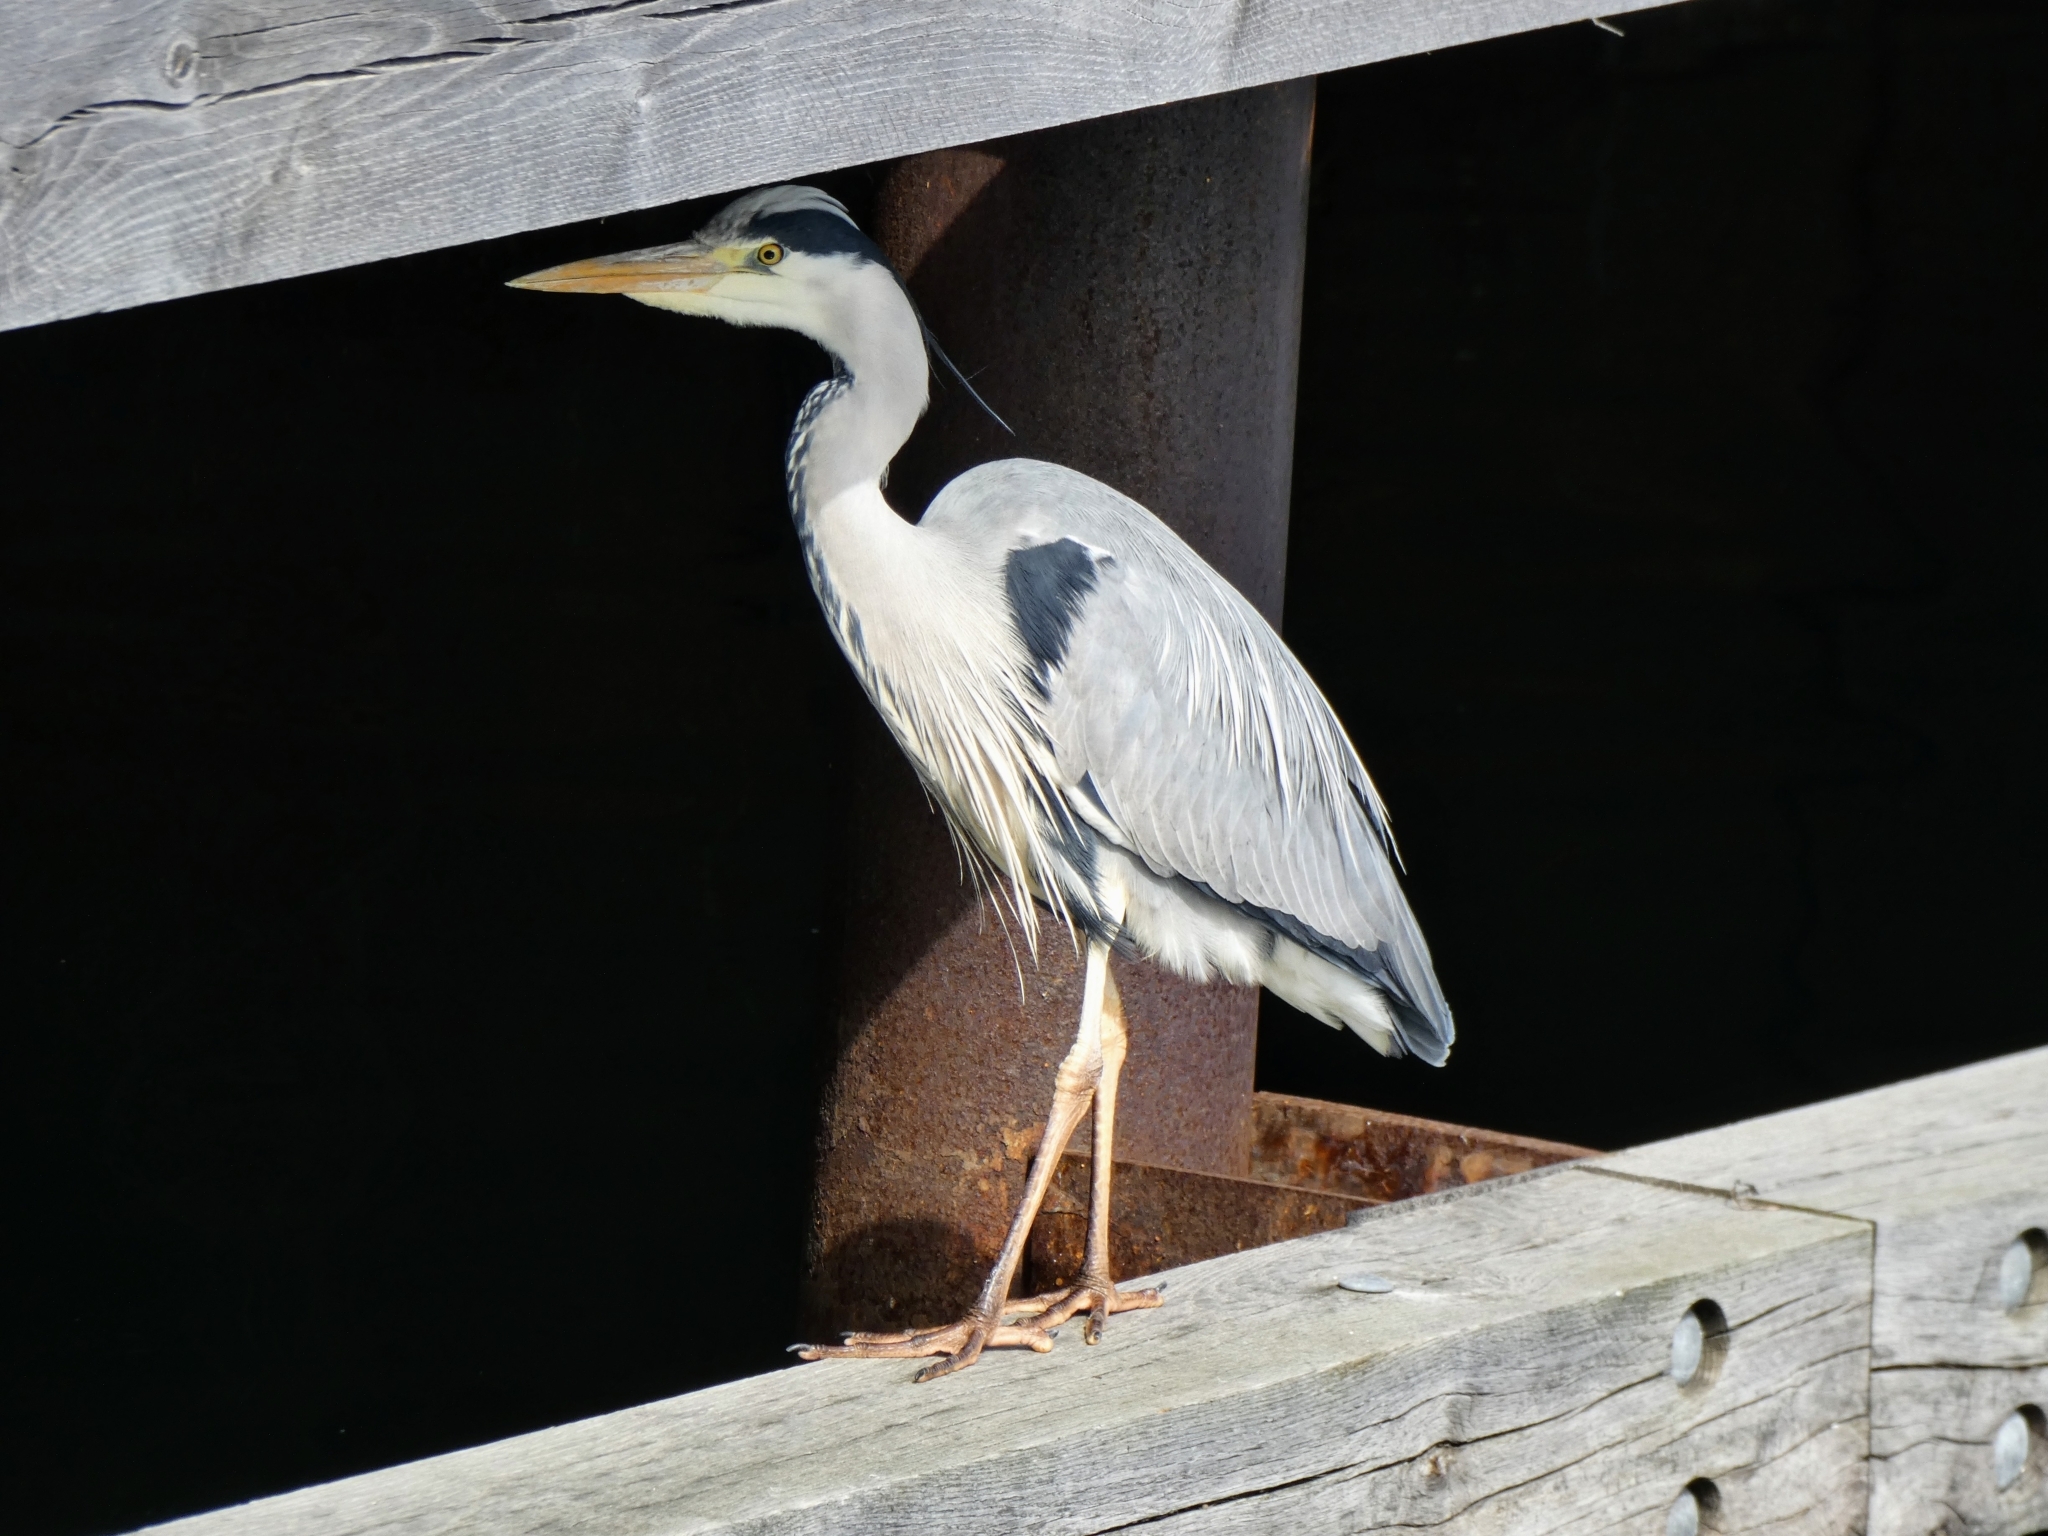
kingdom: Animalia
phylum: Chordata
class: Aves
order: Pelecaniformes
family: Ardeidae
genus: Ardea
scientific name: Ardea cinerea
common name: Grey heron
